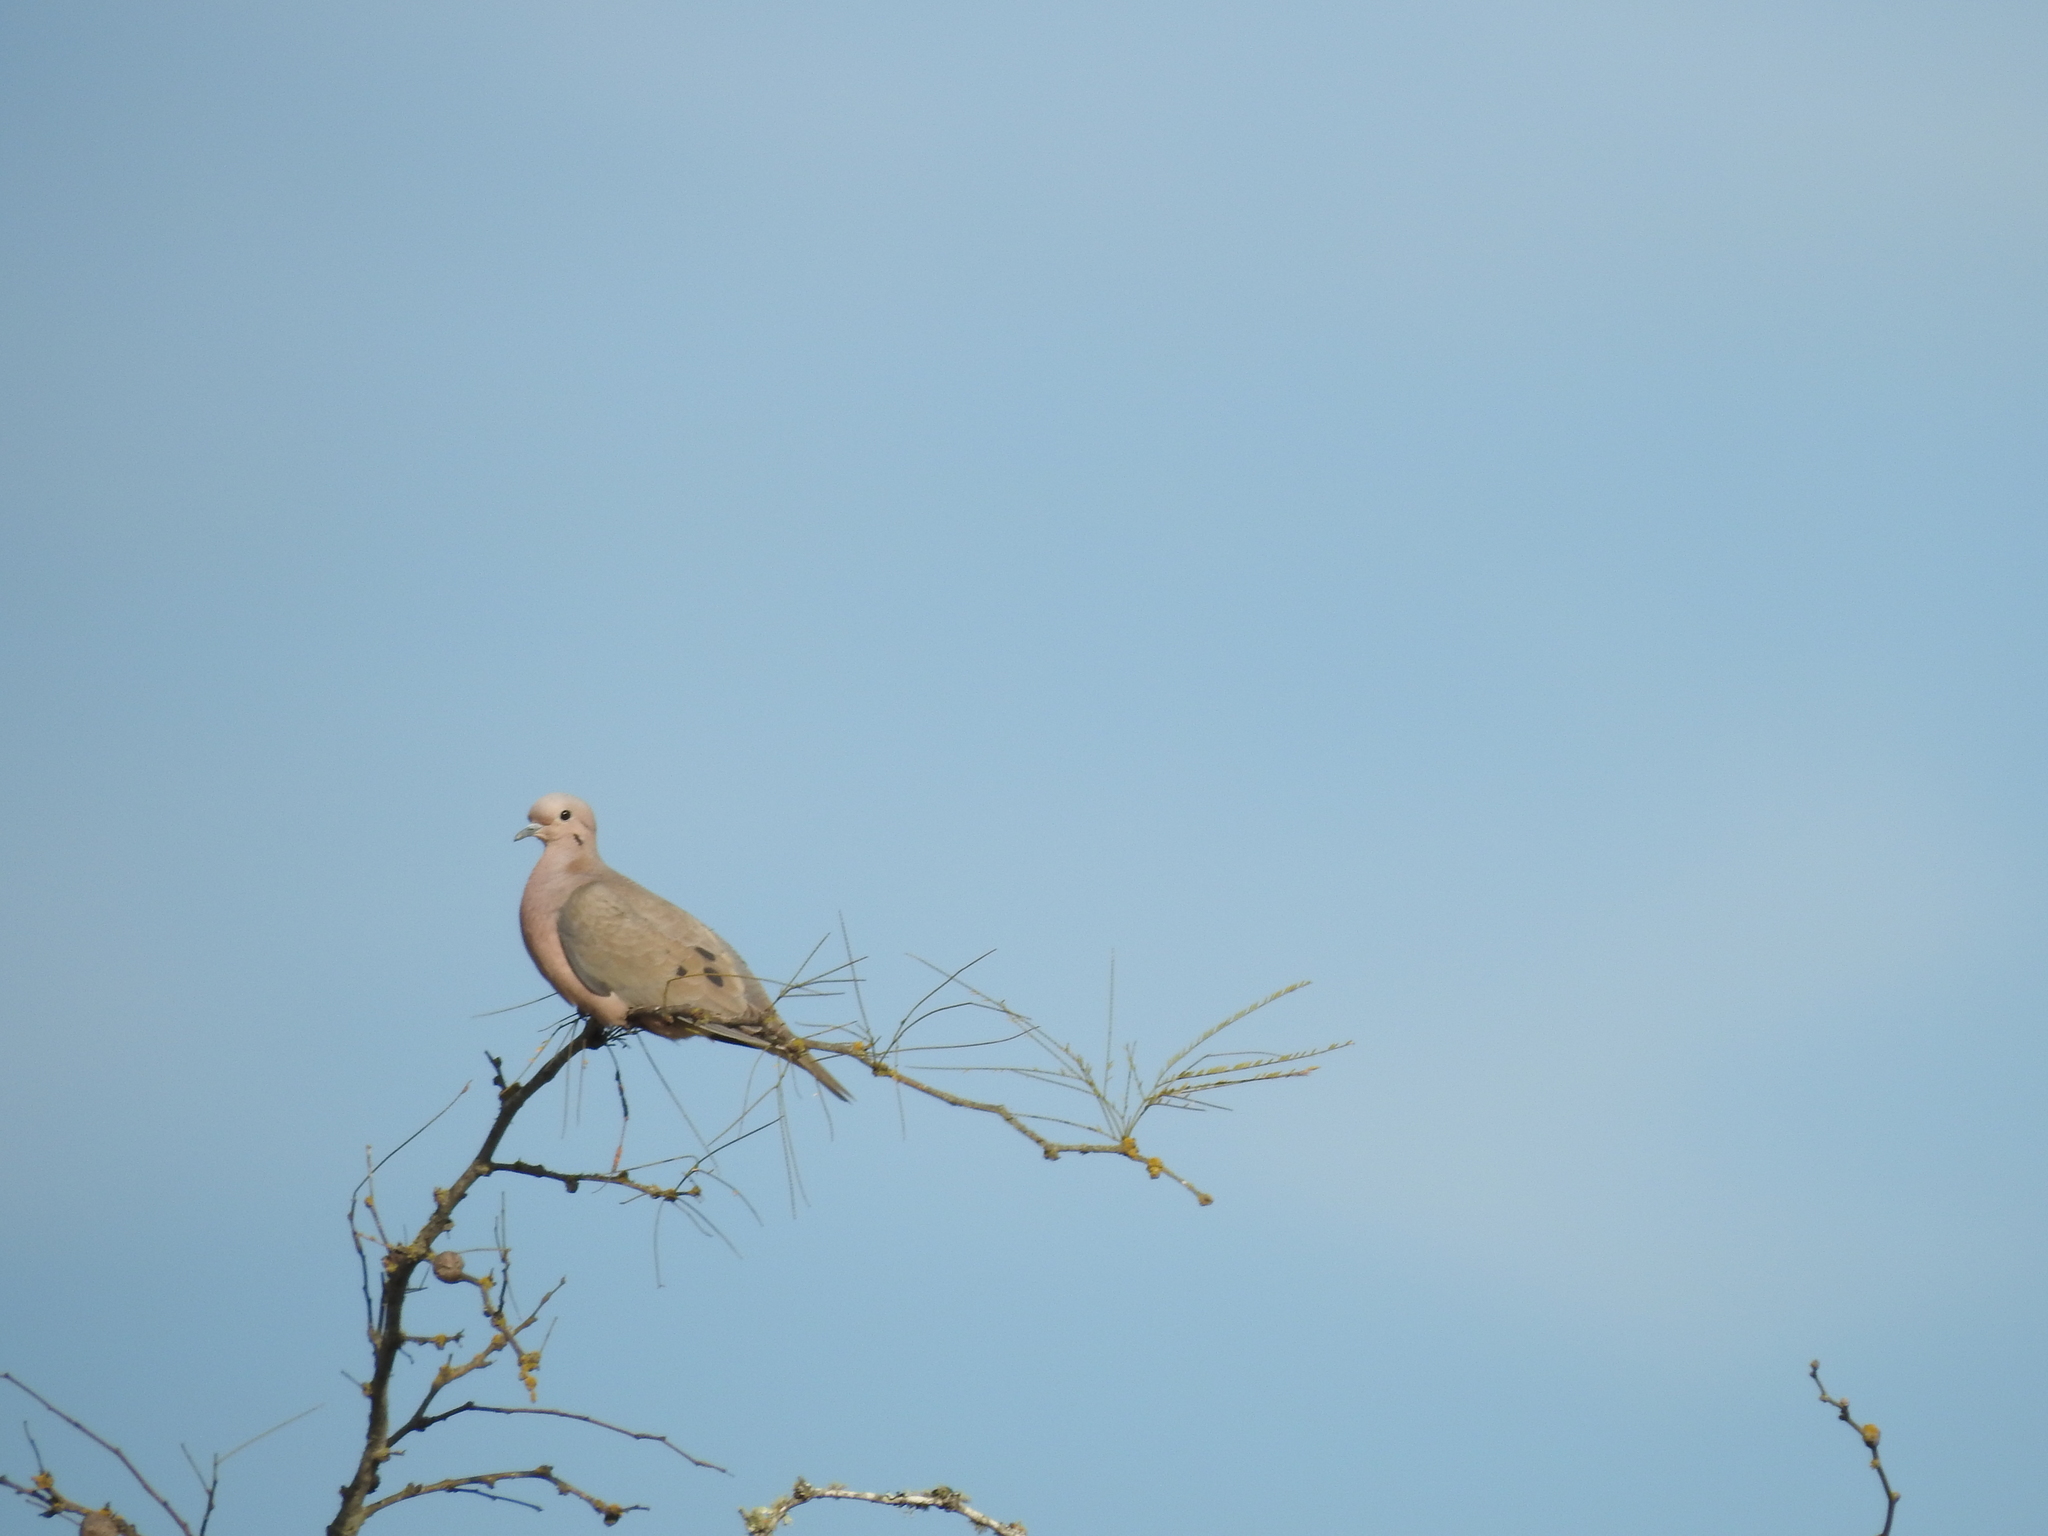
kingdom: Animalia
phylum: Chordata
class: Aves
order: Columbiformes
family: Columbidae
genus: Zenaida
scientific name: Zenaida auriculata
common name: Eared dove
